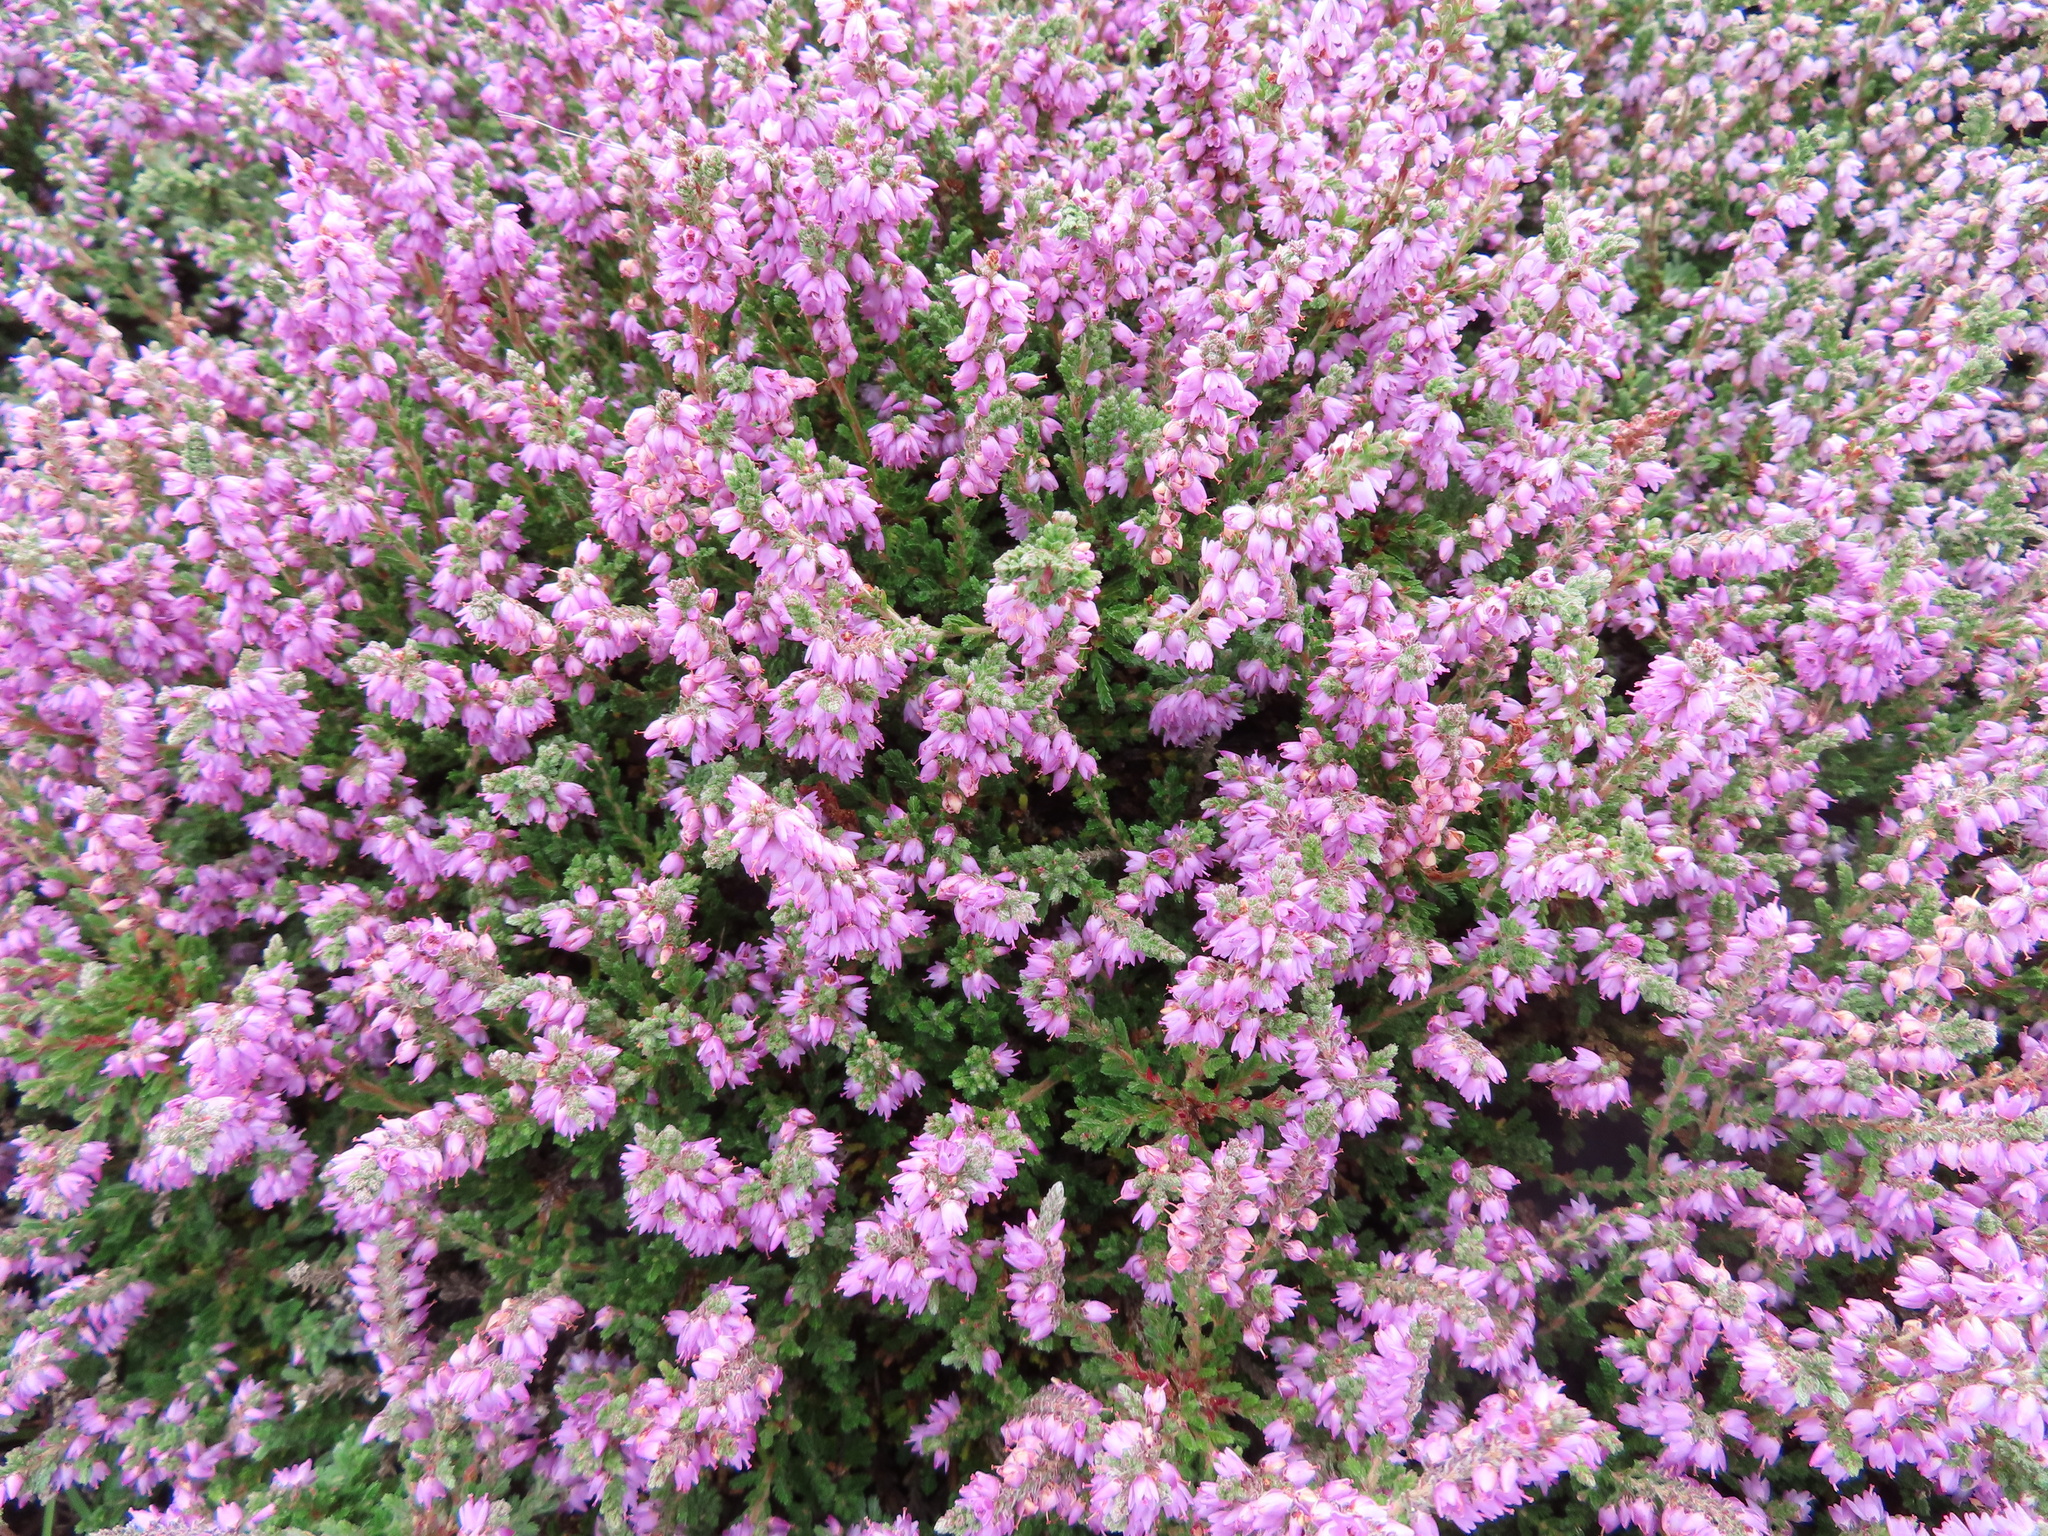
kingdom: Plantae
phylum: Tracheophyta
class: Magnoliopsida
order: Ericales
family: Ericaceae
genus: Calluna
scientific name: Calluna vulgaris
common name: Heather
